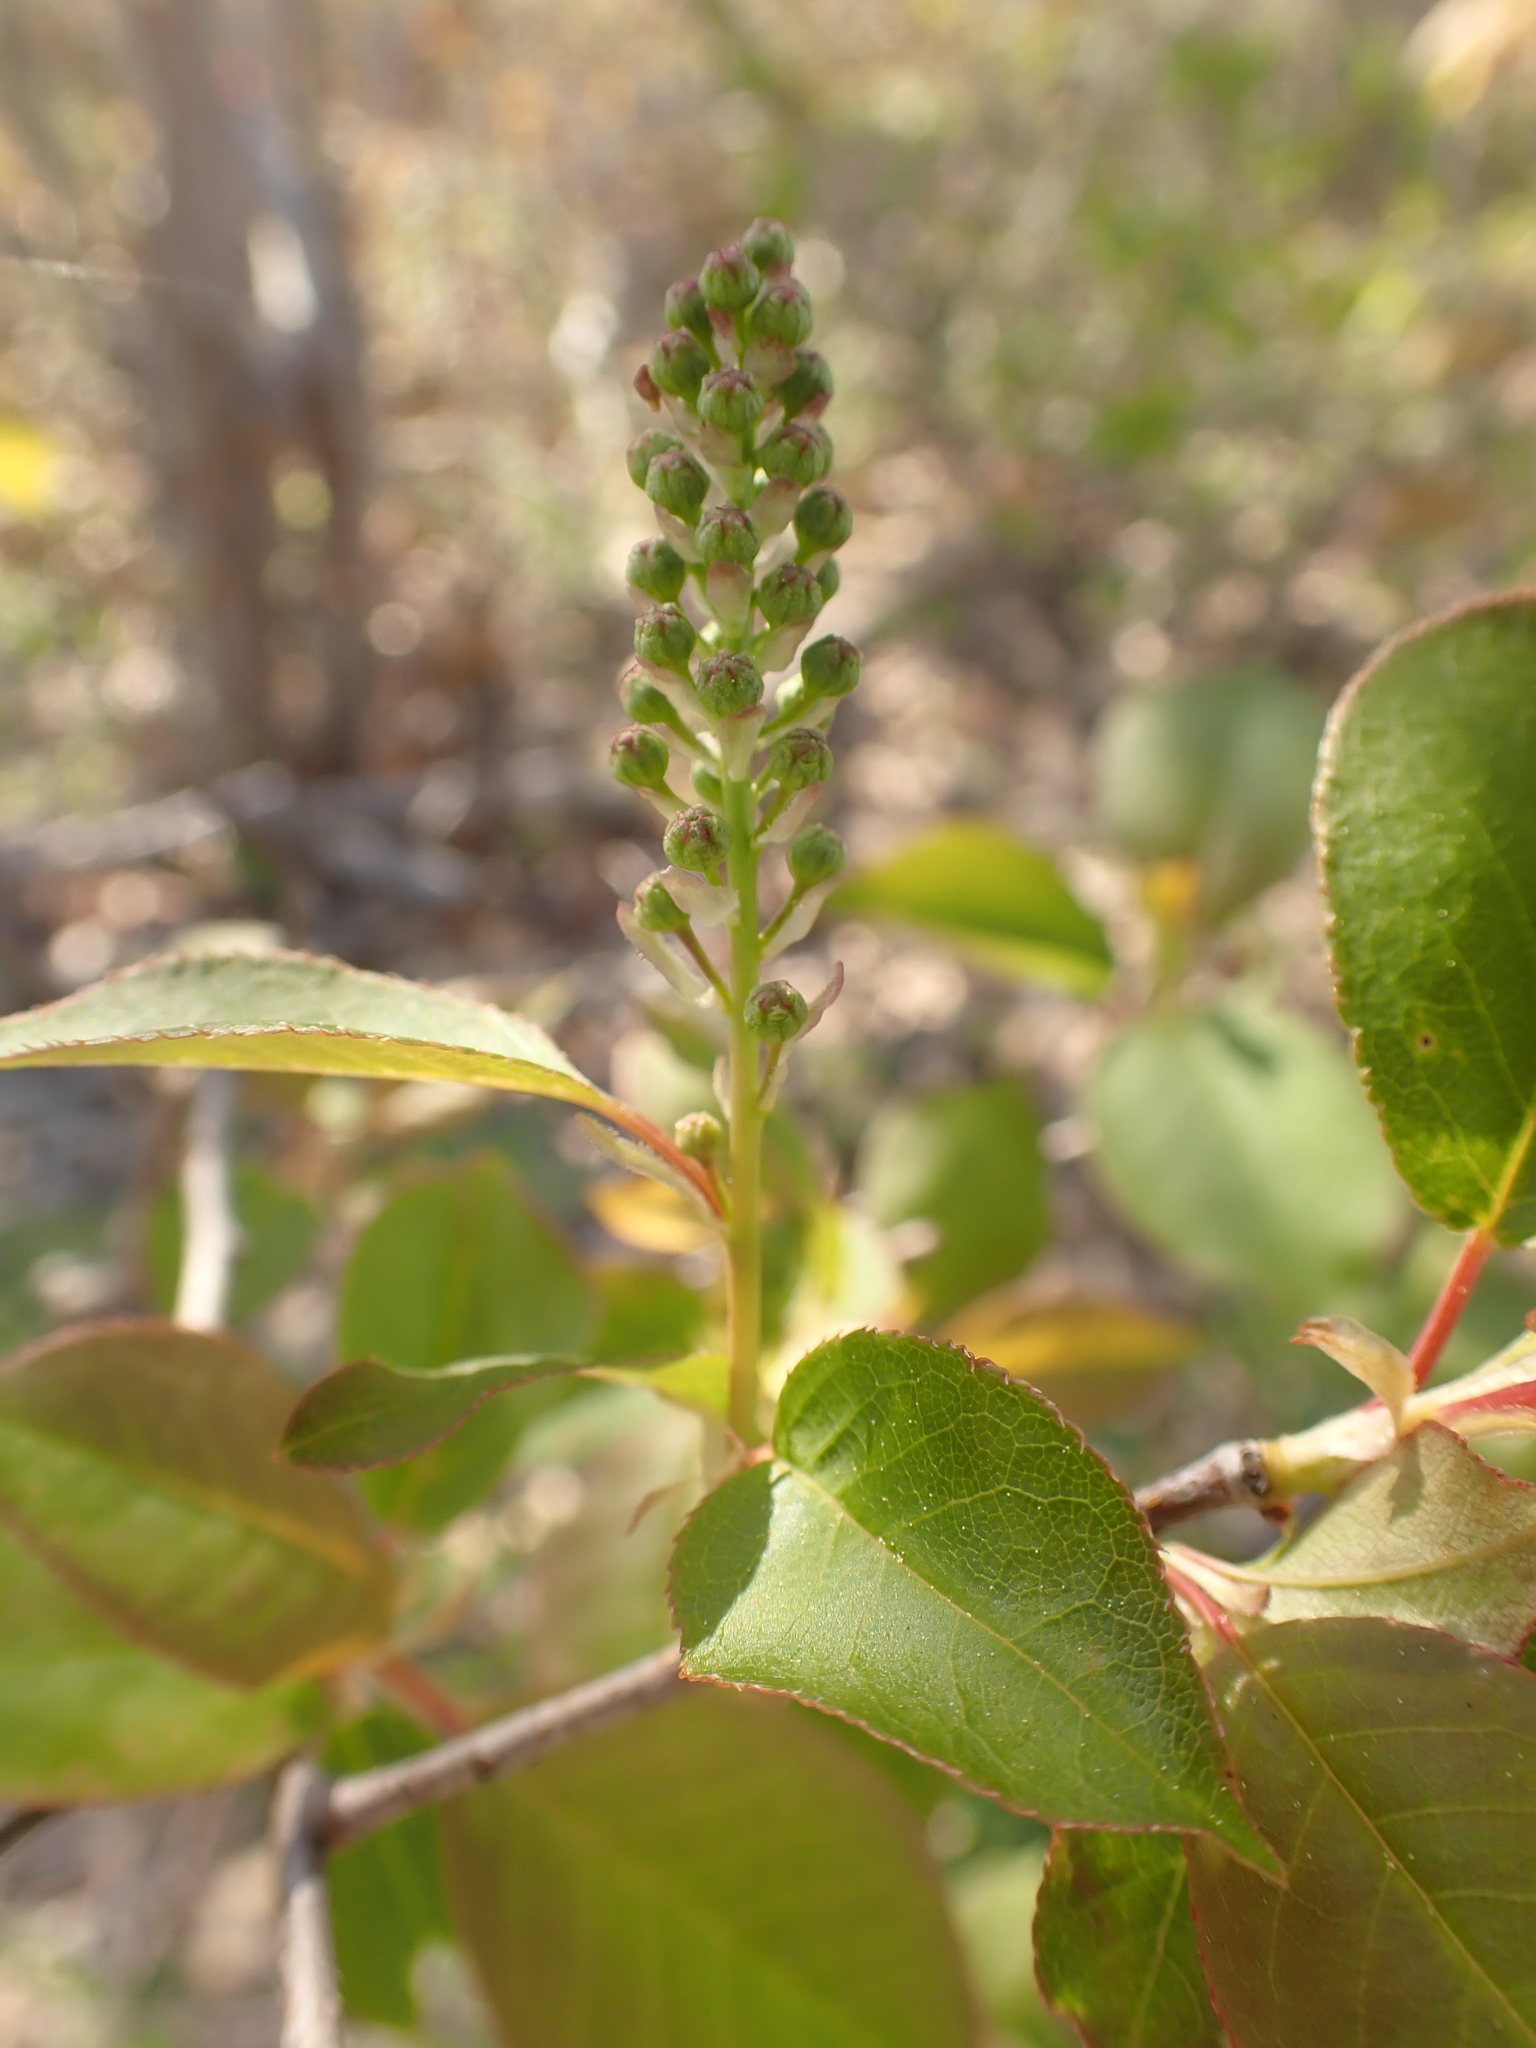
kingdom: Plantae
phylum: Tracheophyta
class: Magnoliopsida
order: Rosales
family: Rosaceae
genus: Prunus
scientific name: Prunus virginiana
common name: Chokecherry
